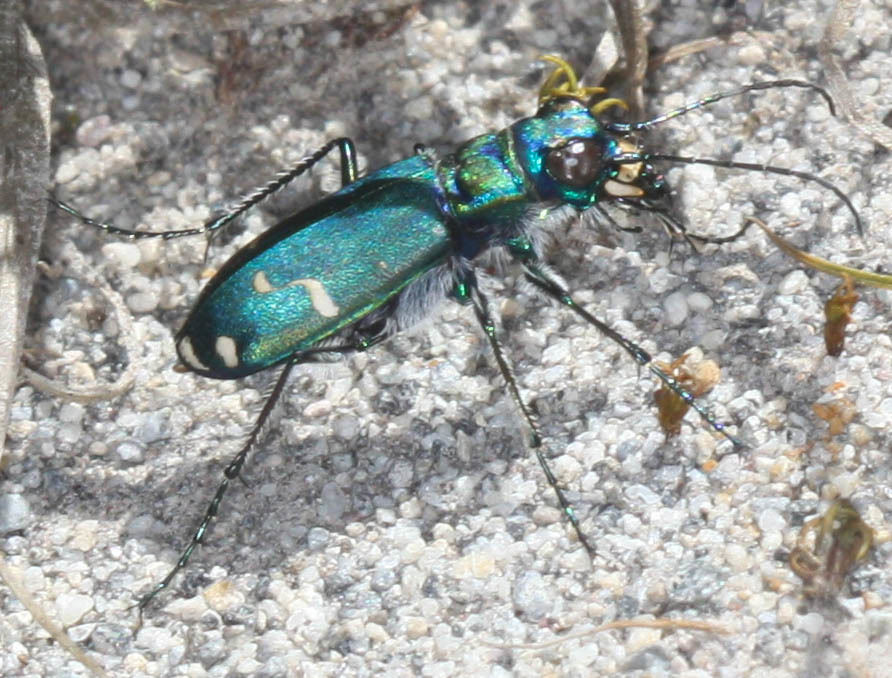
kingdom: Animalia
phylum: Arthropoda
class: Insecta
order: Coleoptera
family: Carabidae
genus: Cicindela
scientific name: Cicindela depressula
